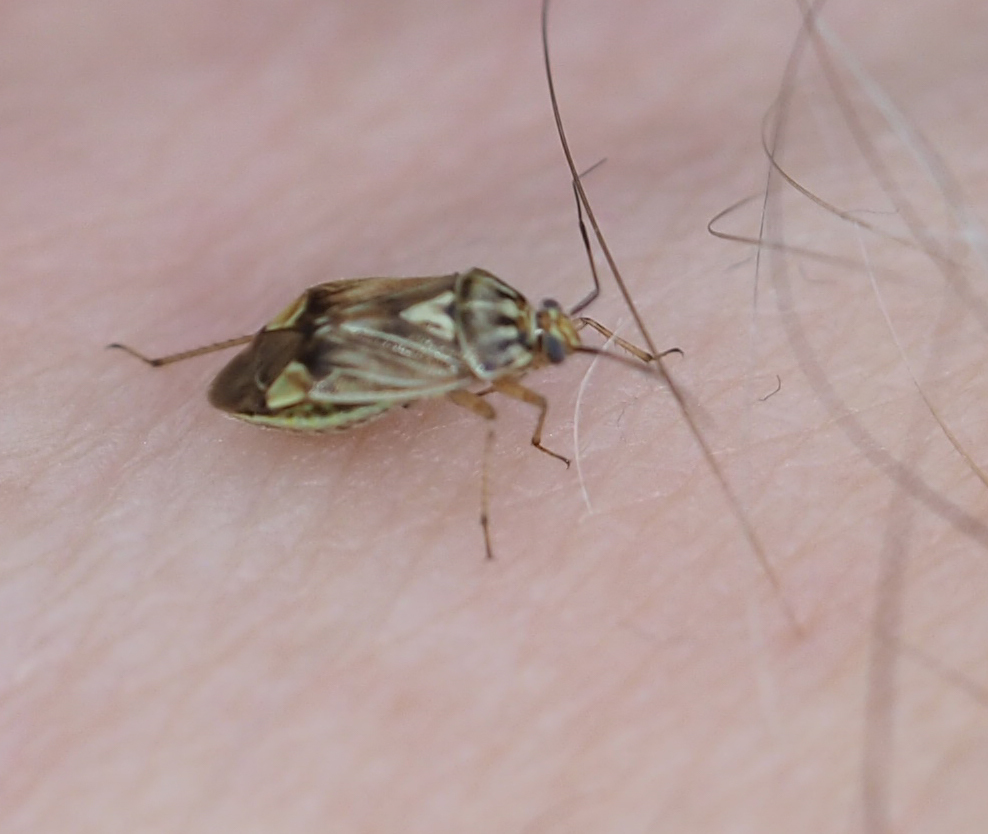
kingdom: Animalia
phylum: Arthropoda
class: Insecta
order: Hemiptera
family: Miridae
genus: Lygus
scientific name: Lygus lineolaris
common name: North american tarnished plant bug
